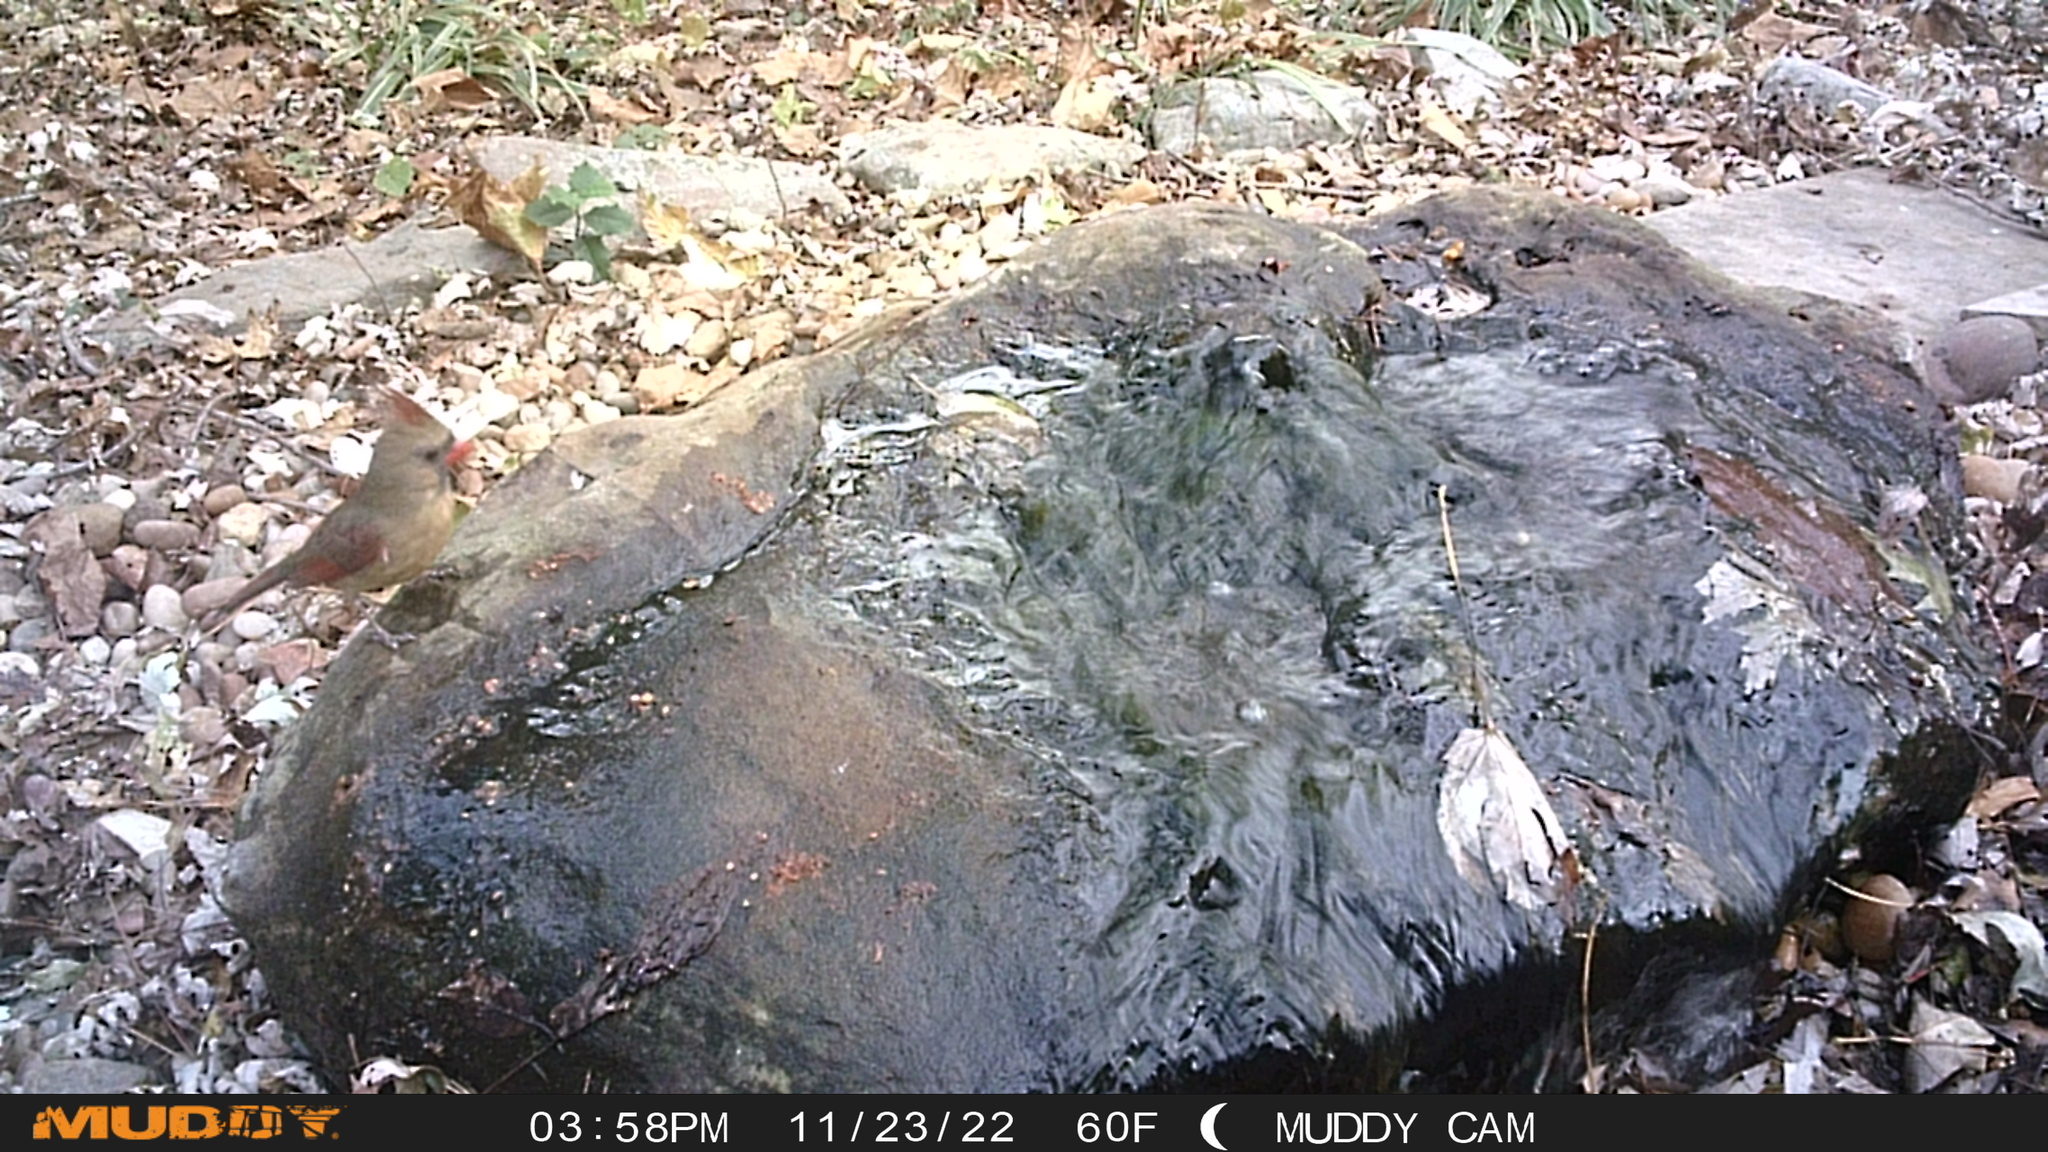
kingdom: Animalia
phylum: Chordata
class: Aves
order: Passeriformes
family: Cardinalidae
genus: Cardinalis
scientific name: Cardinalis cardinalis
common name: Northern cardinal
